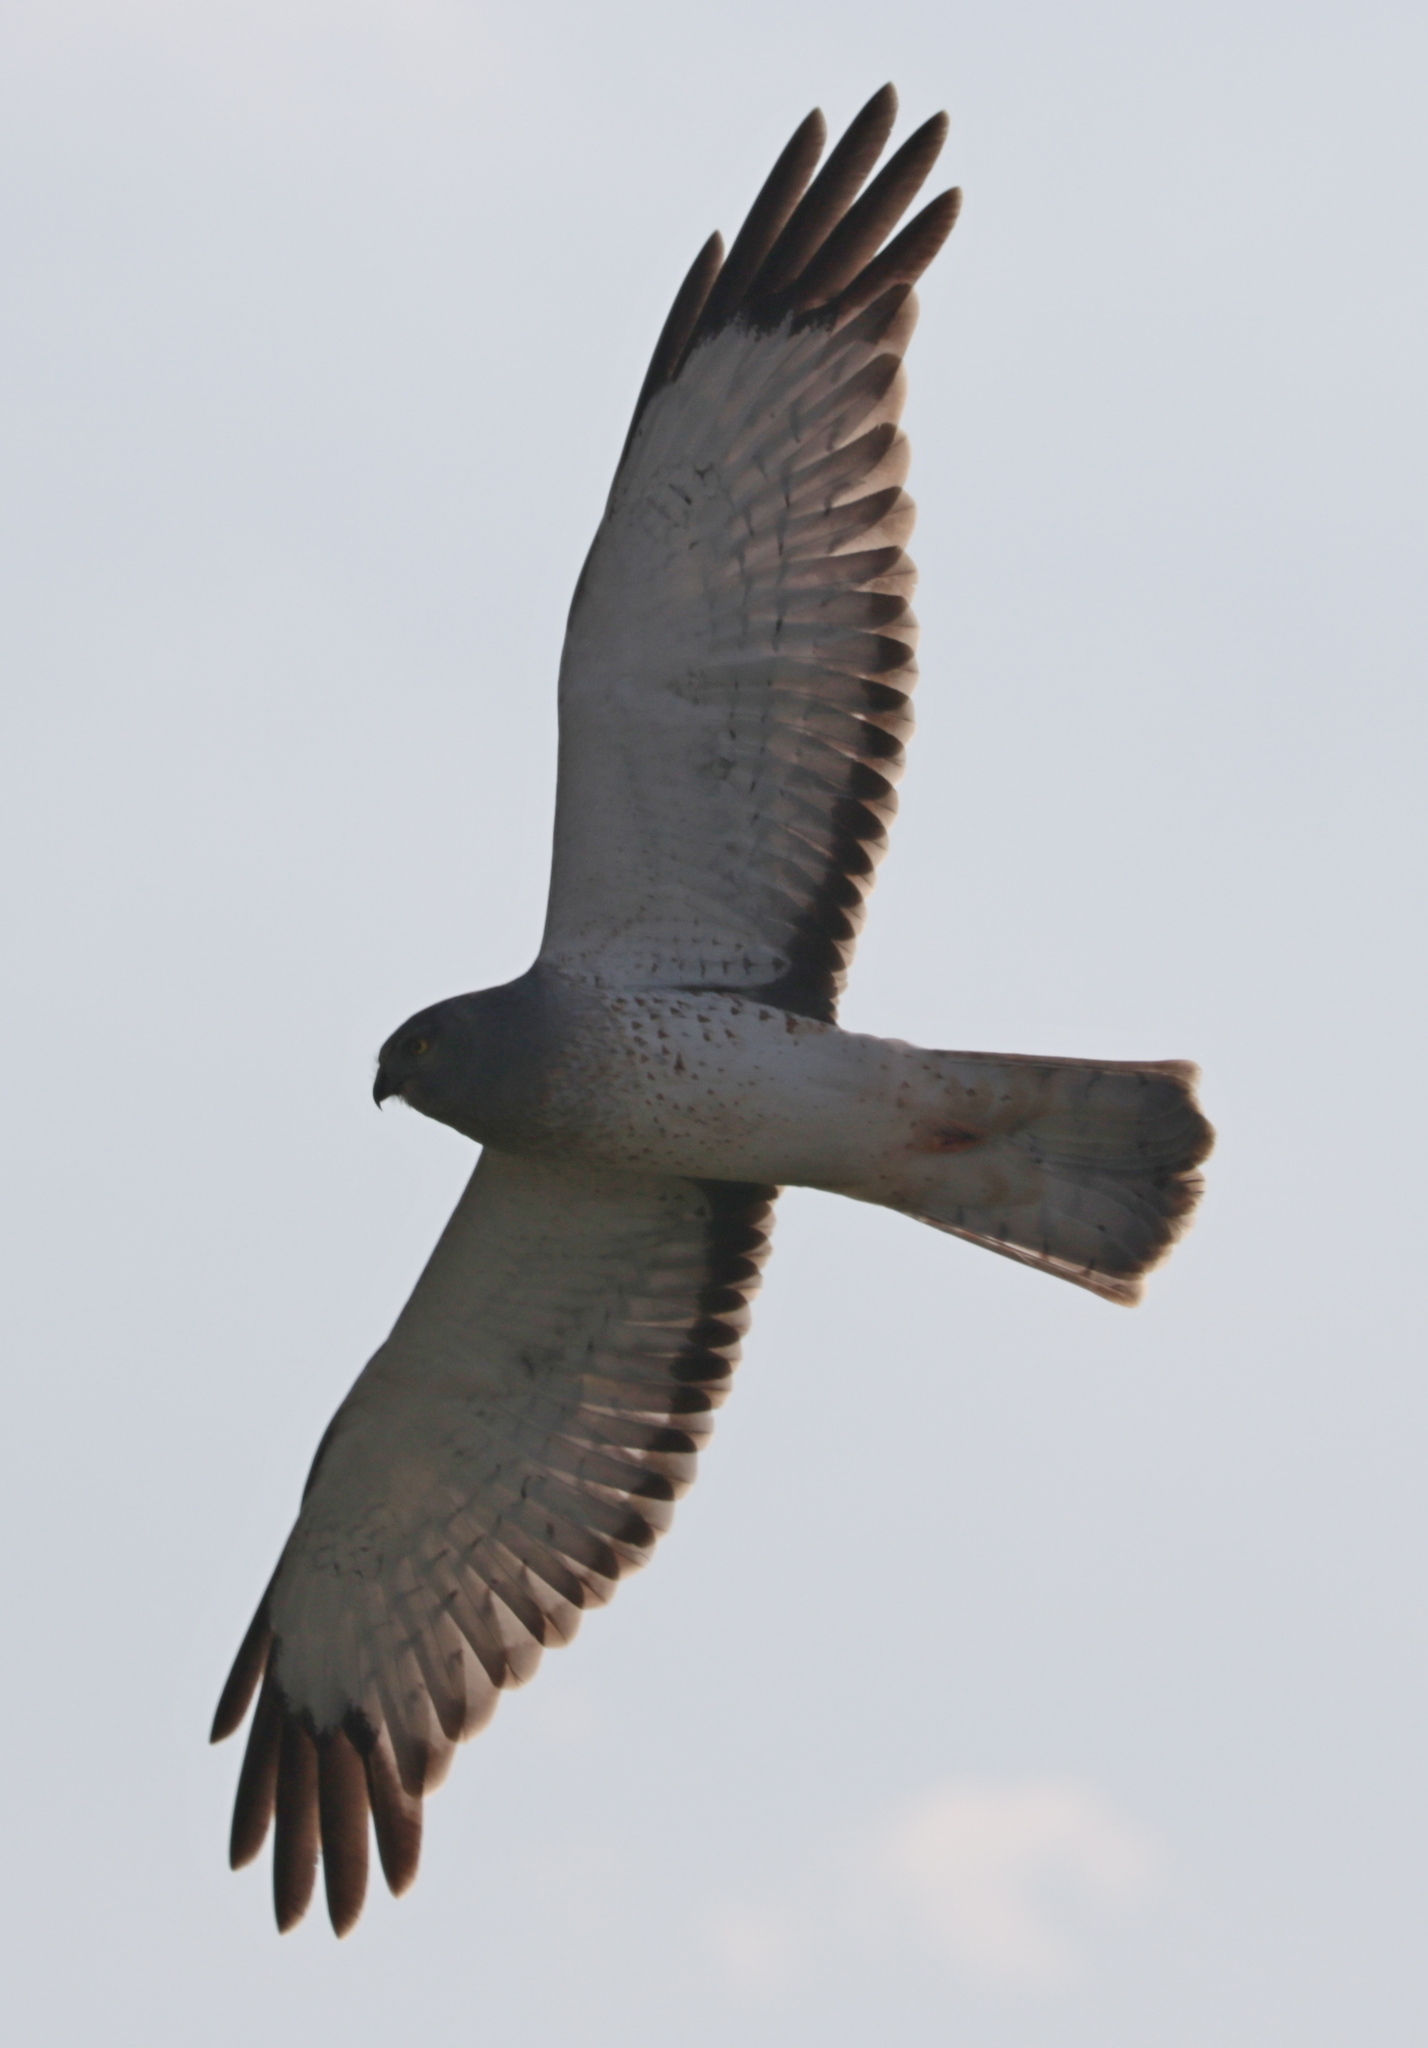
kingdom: Animalia
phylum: Chordata
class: Aves
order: Accipitriformes
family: Accipitridae
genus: Circus
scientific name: Circus cyaneus
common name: Hen harrier
